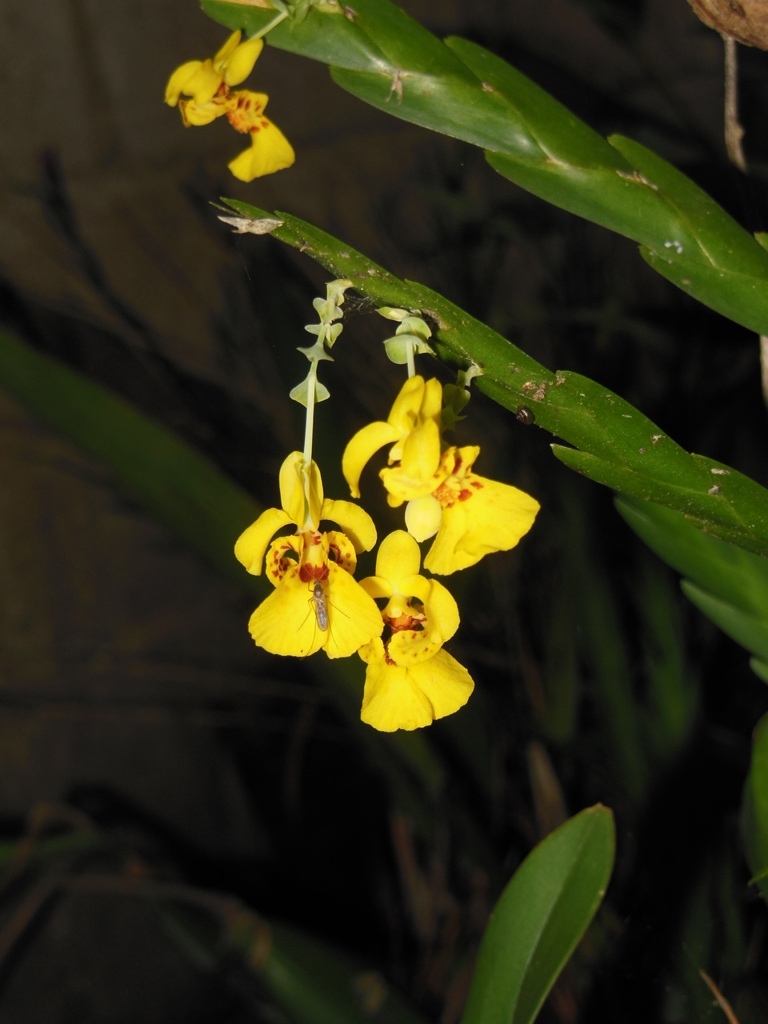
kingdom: Plantae
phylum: Tracheophyta
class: Liliopsida
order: Asparagales
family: Orchidaceae
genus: Lockhartia
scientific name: Lockhartia oerstedii
